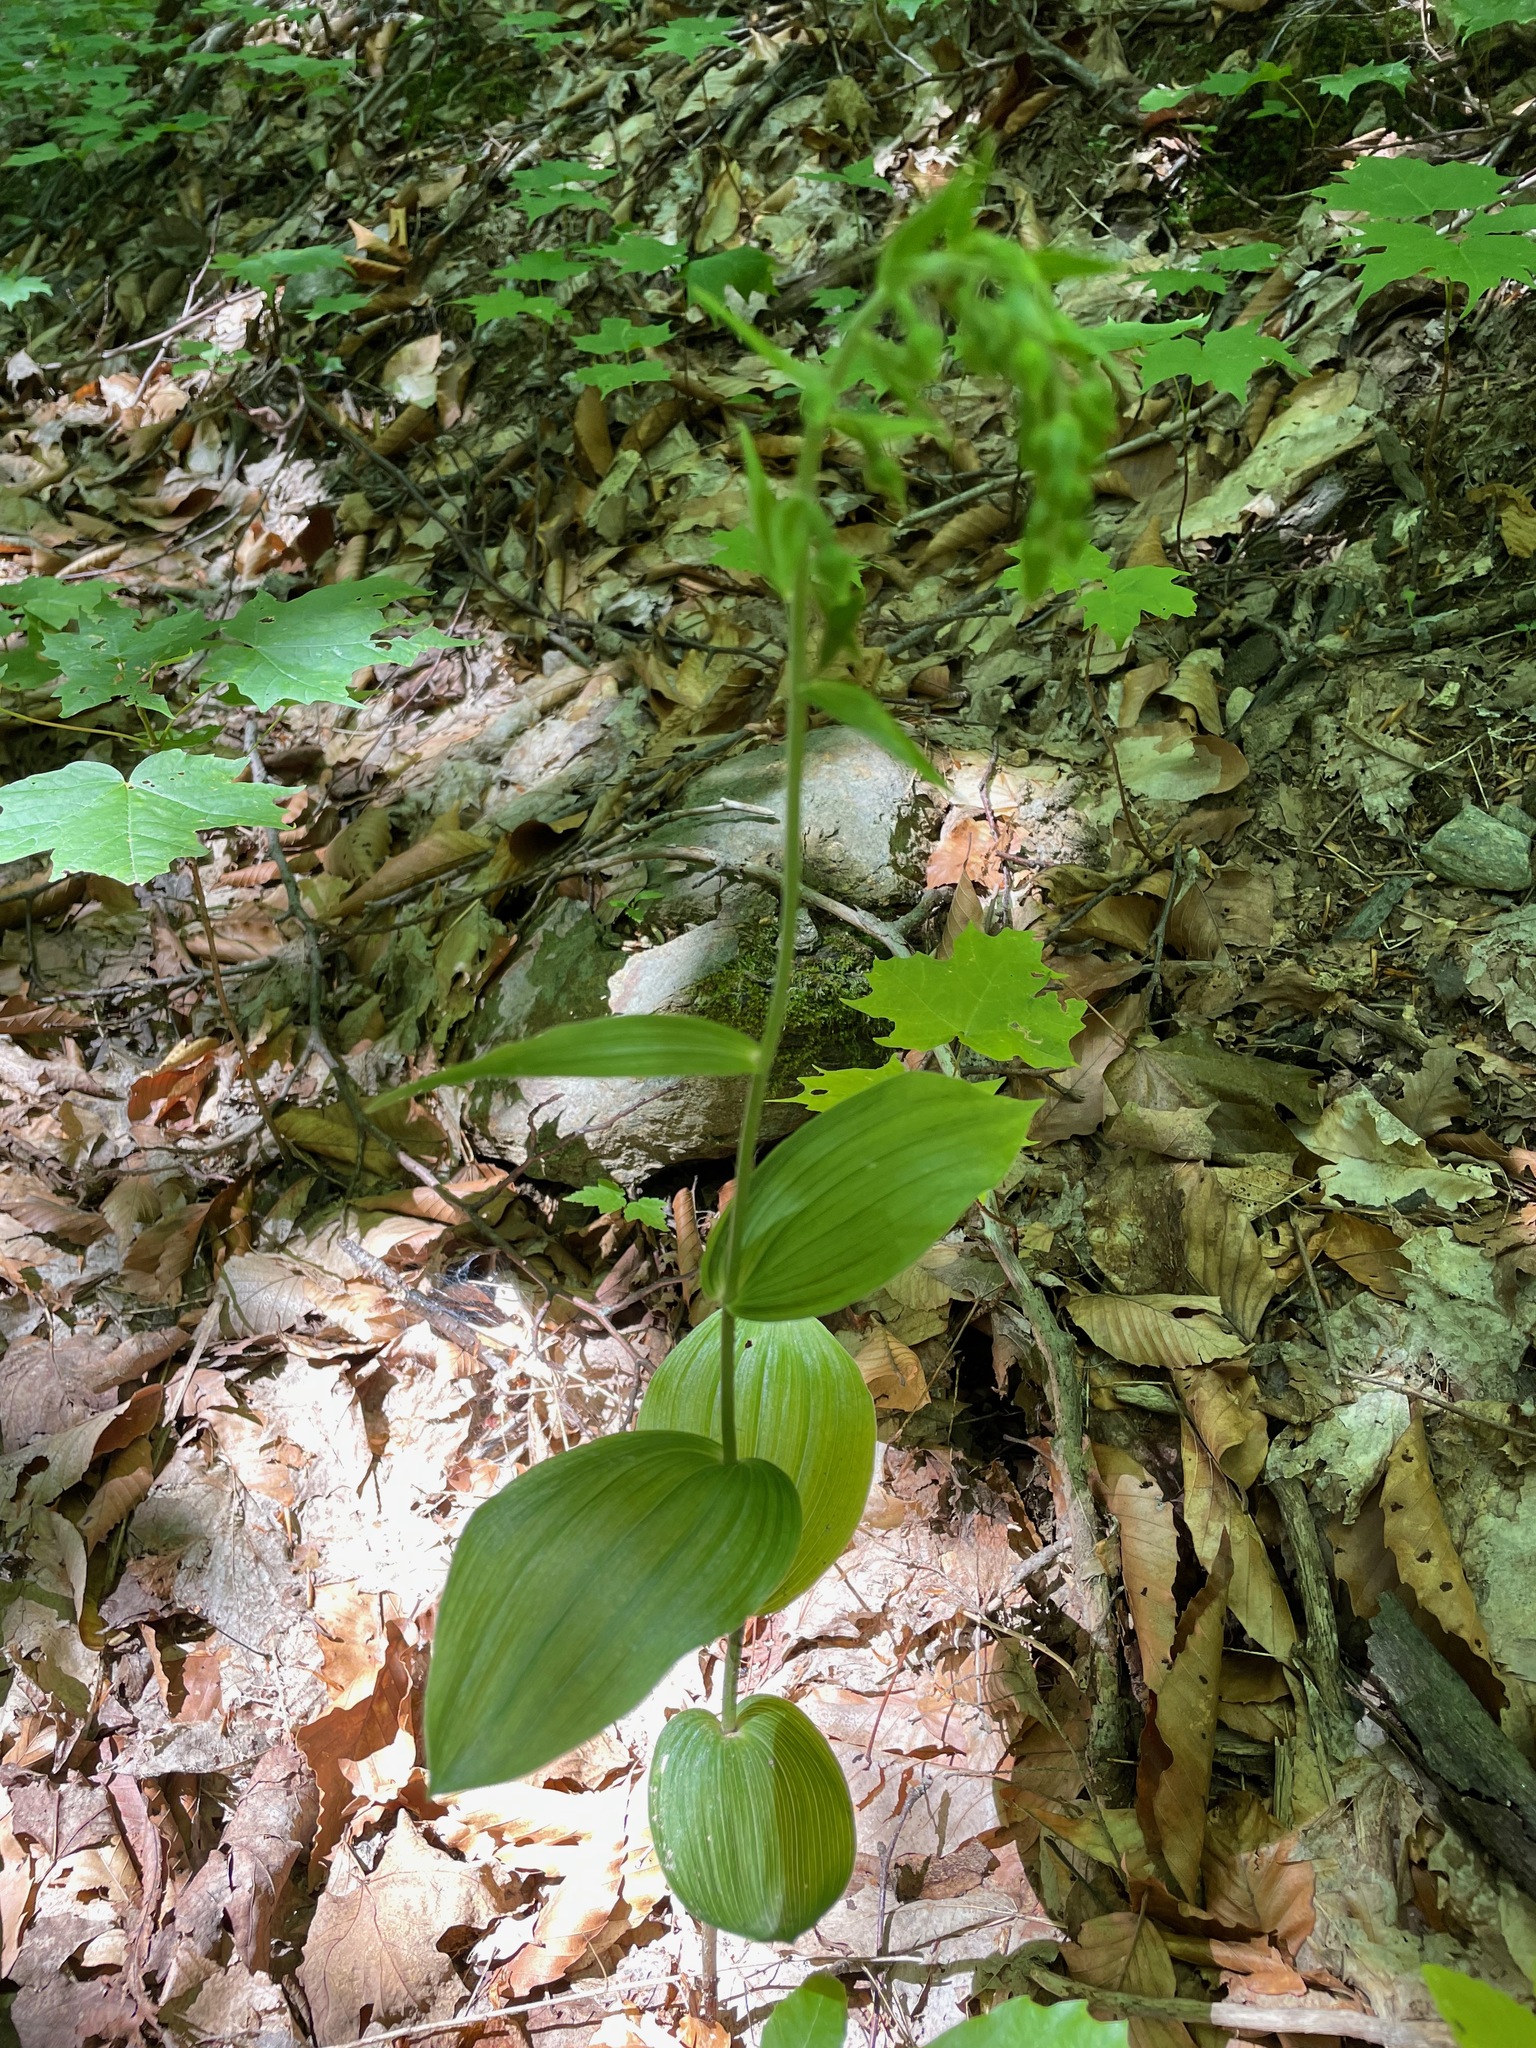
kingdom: Plantae
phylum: Tracheophyta
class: Liliopsida
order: Asparagales
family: Orchidaceae
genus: Epipactis
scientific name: Epipactis helleborine
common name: Broad-leaved helleborine
